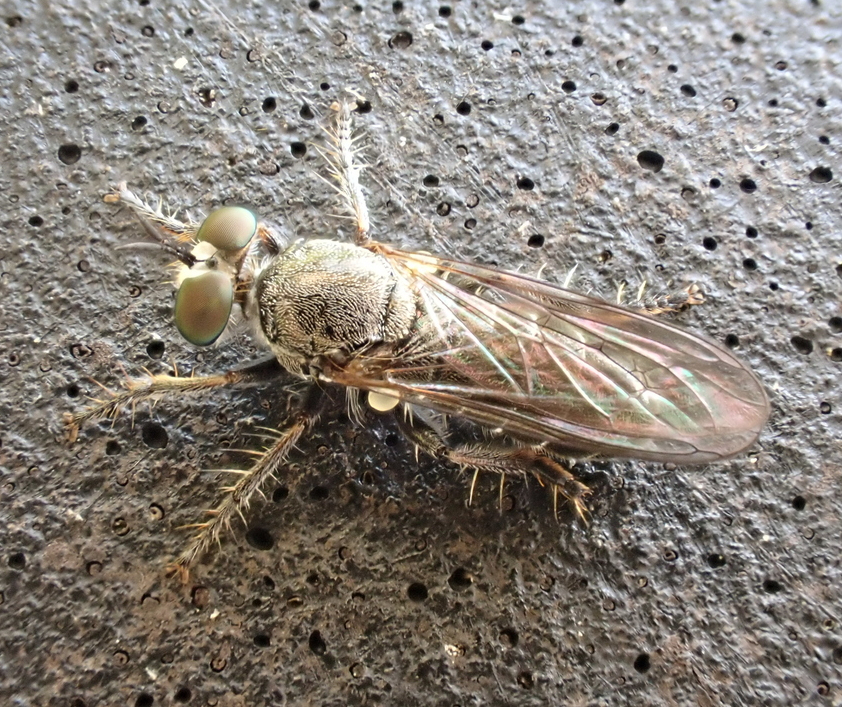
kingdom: Animalia
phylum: Arthropoda
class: Insecta
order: Diptera
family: Asilidae
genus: Atomosia
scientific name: Atomosia puella
